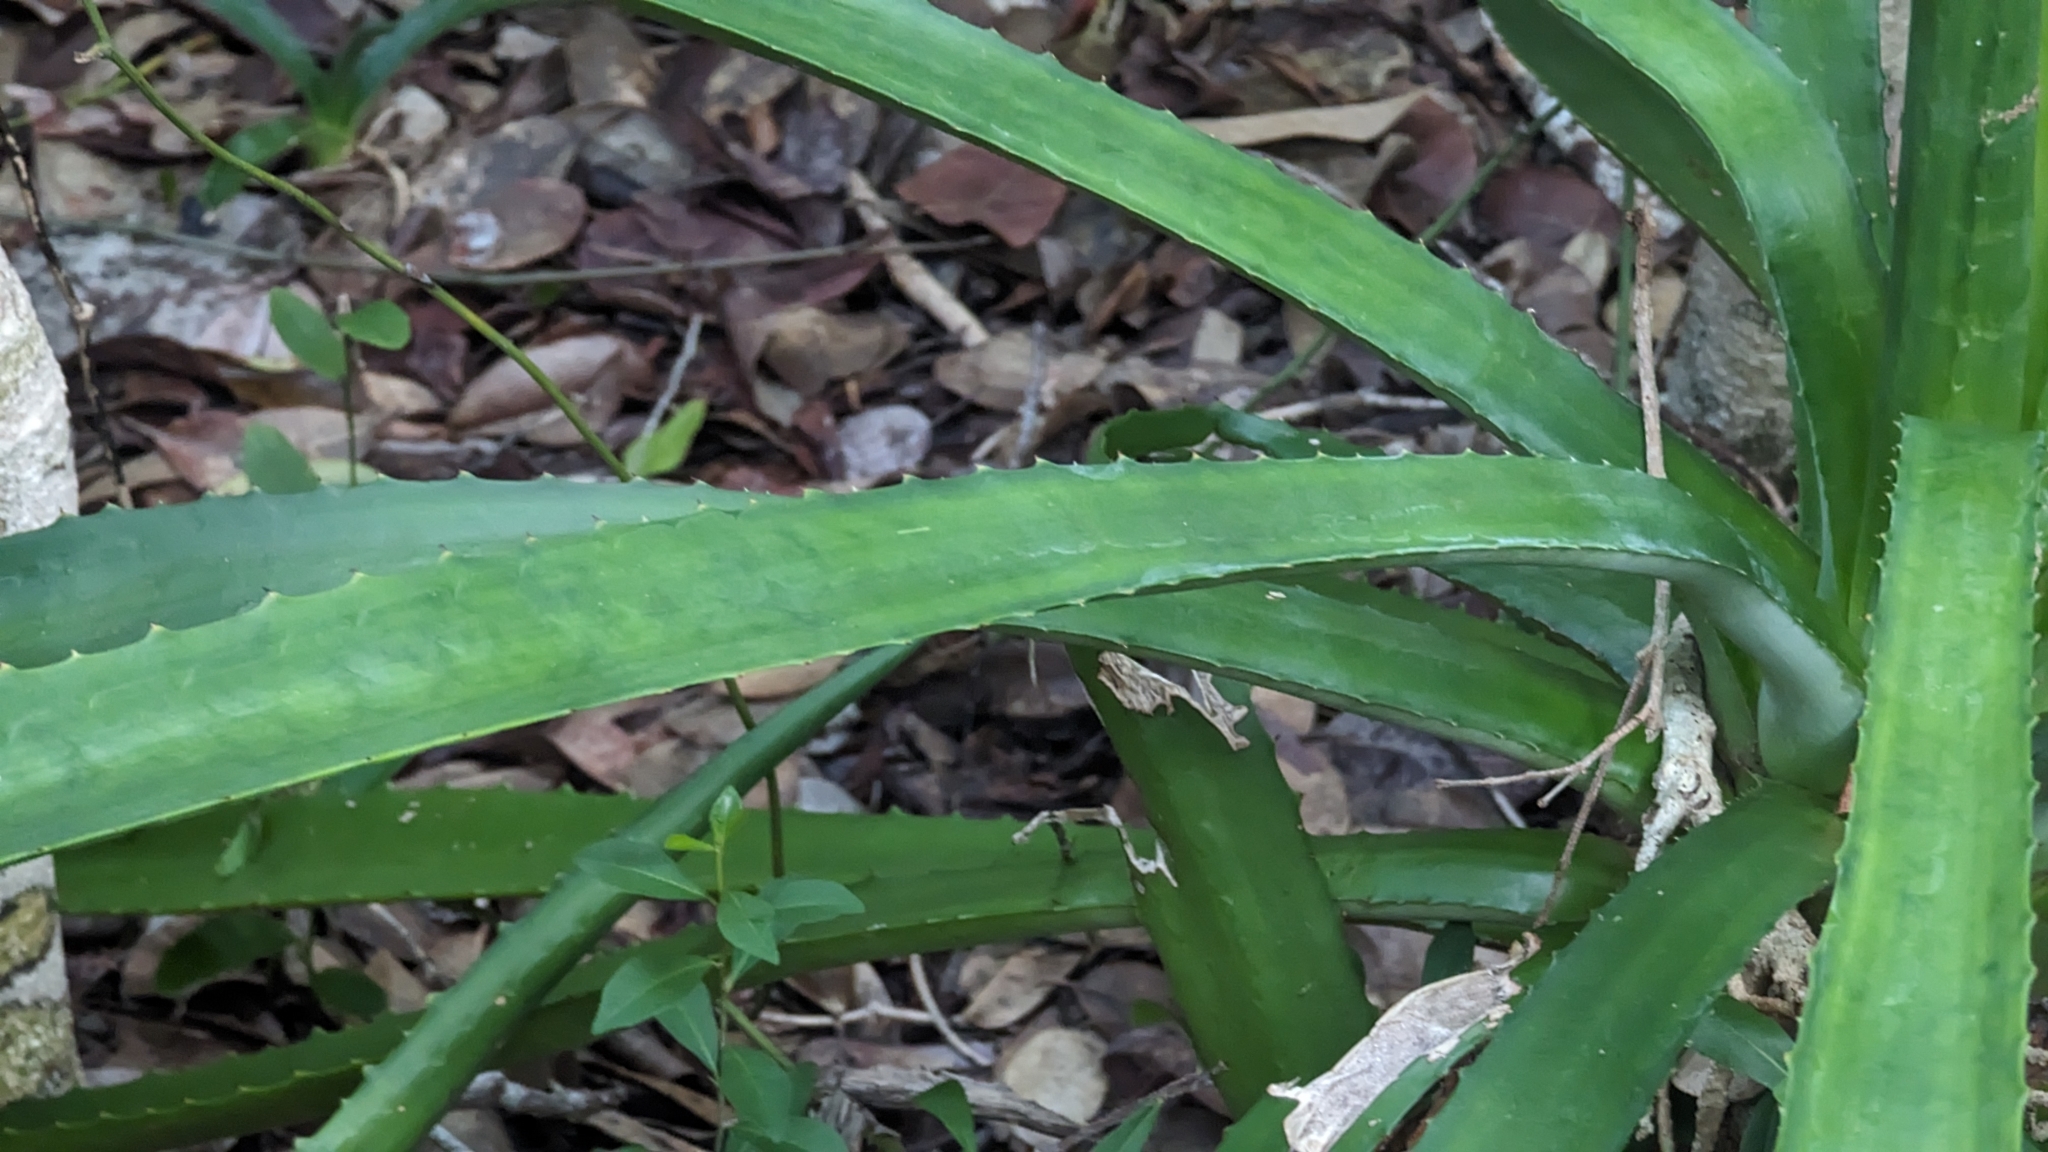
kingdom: Plantae
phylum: Tracheophyta
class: Liliopsida
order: Asparagales
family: Asparagaceae
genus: Agave
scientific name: Agave decipiens
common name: False sisal
